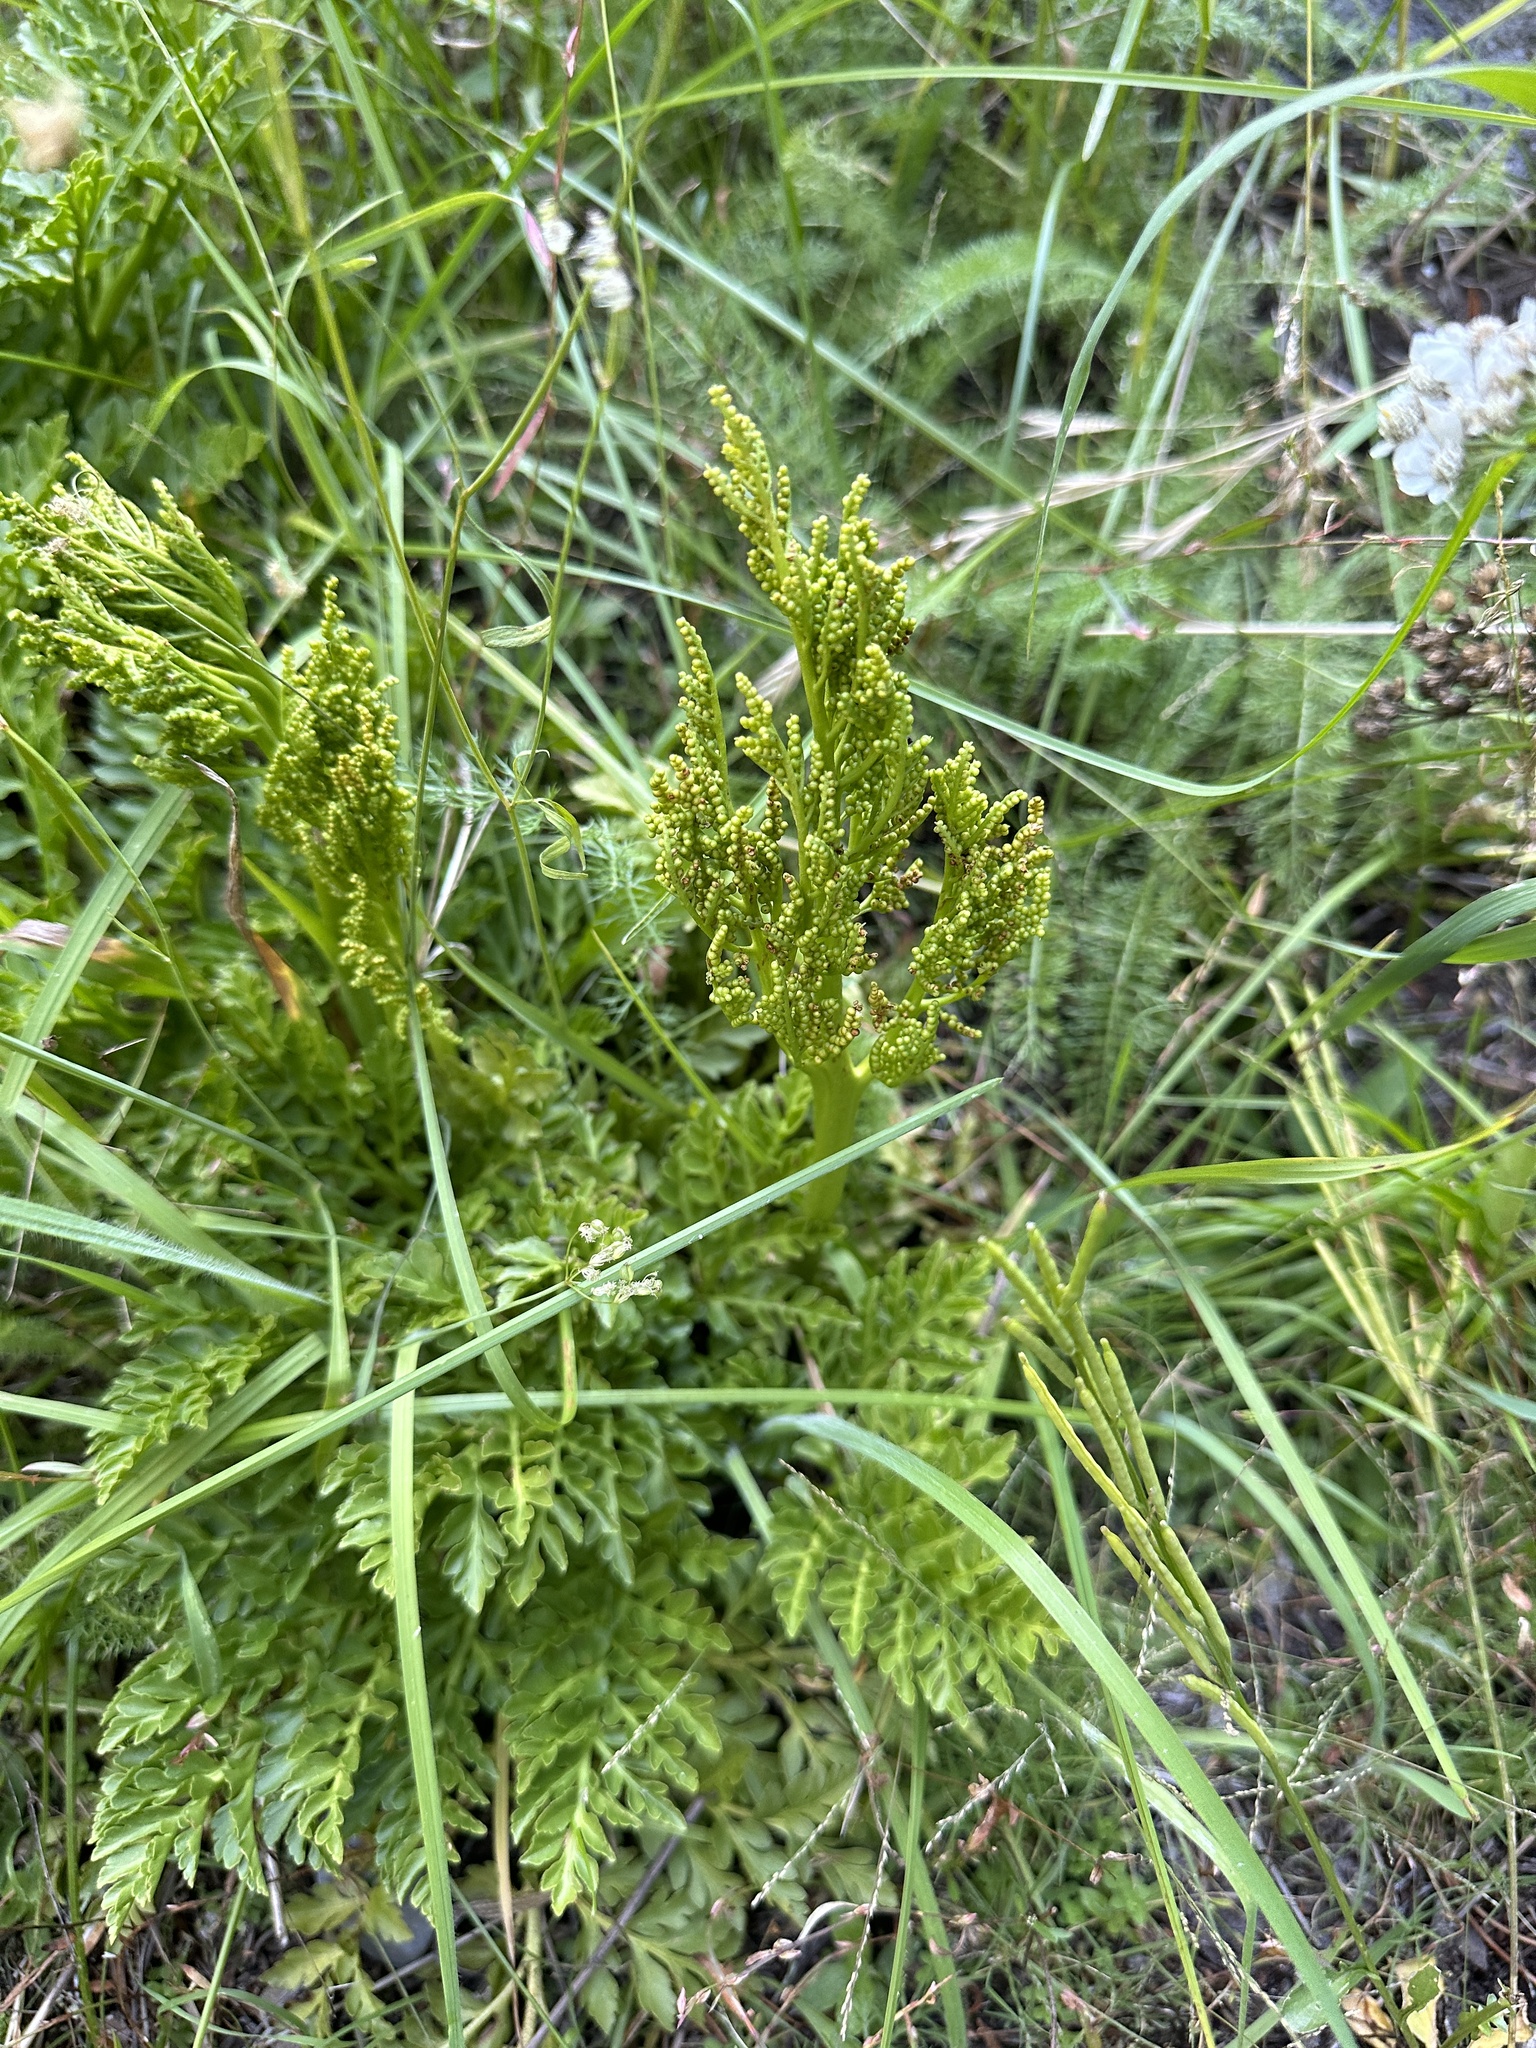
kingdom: Plantae
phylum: Tracheophyta
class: Polypodiopsida
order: Ophioglossales
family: Ophioglossaceae
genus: Sceptridium
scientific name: Sceptridium multifidum
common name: Leathery grape fern
